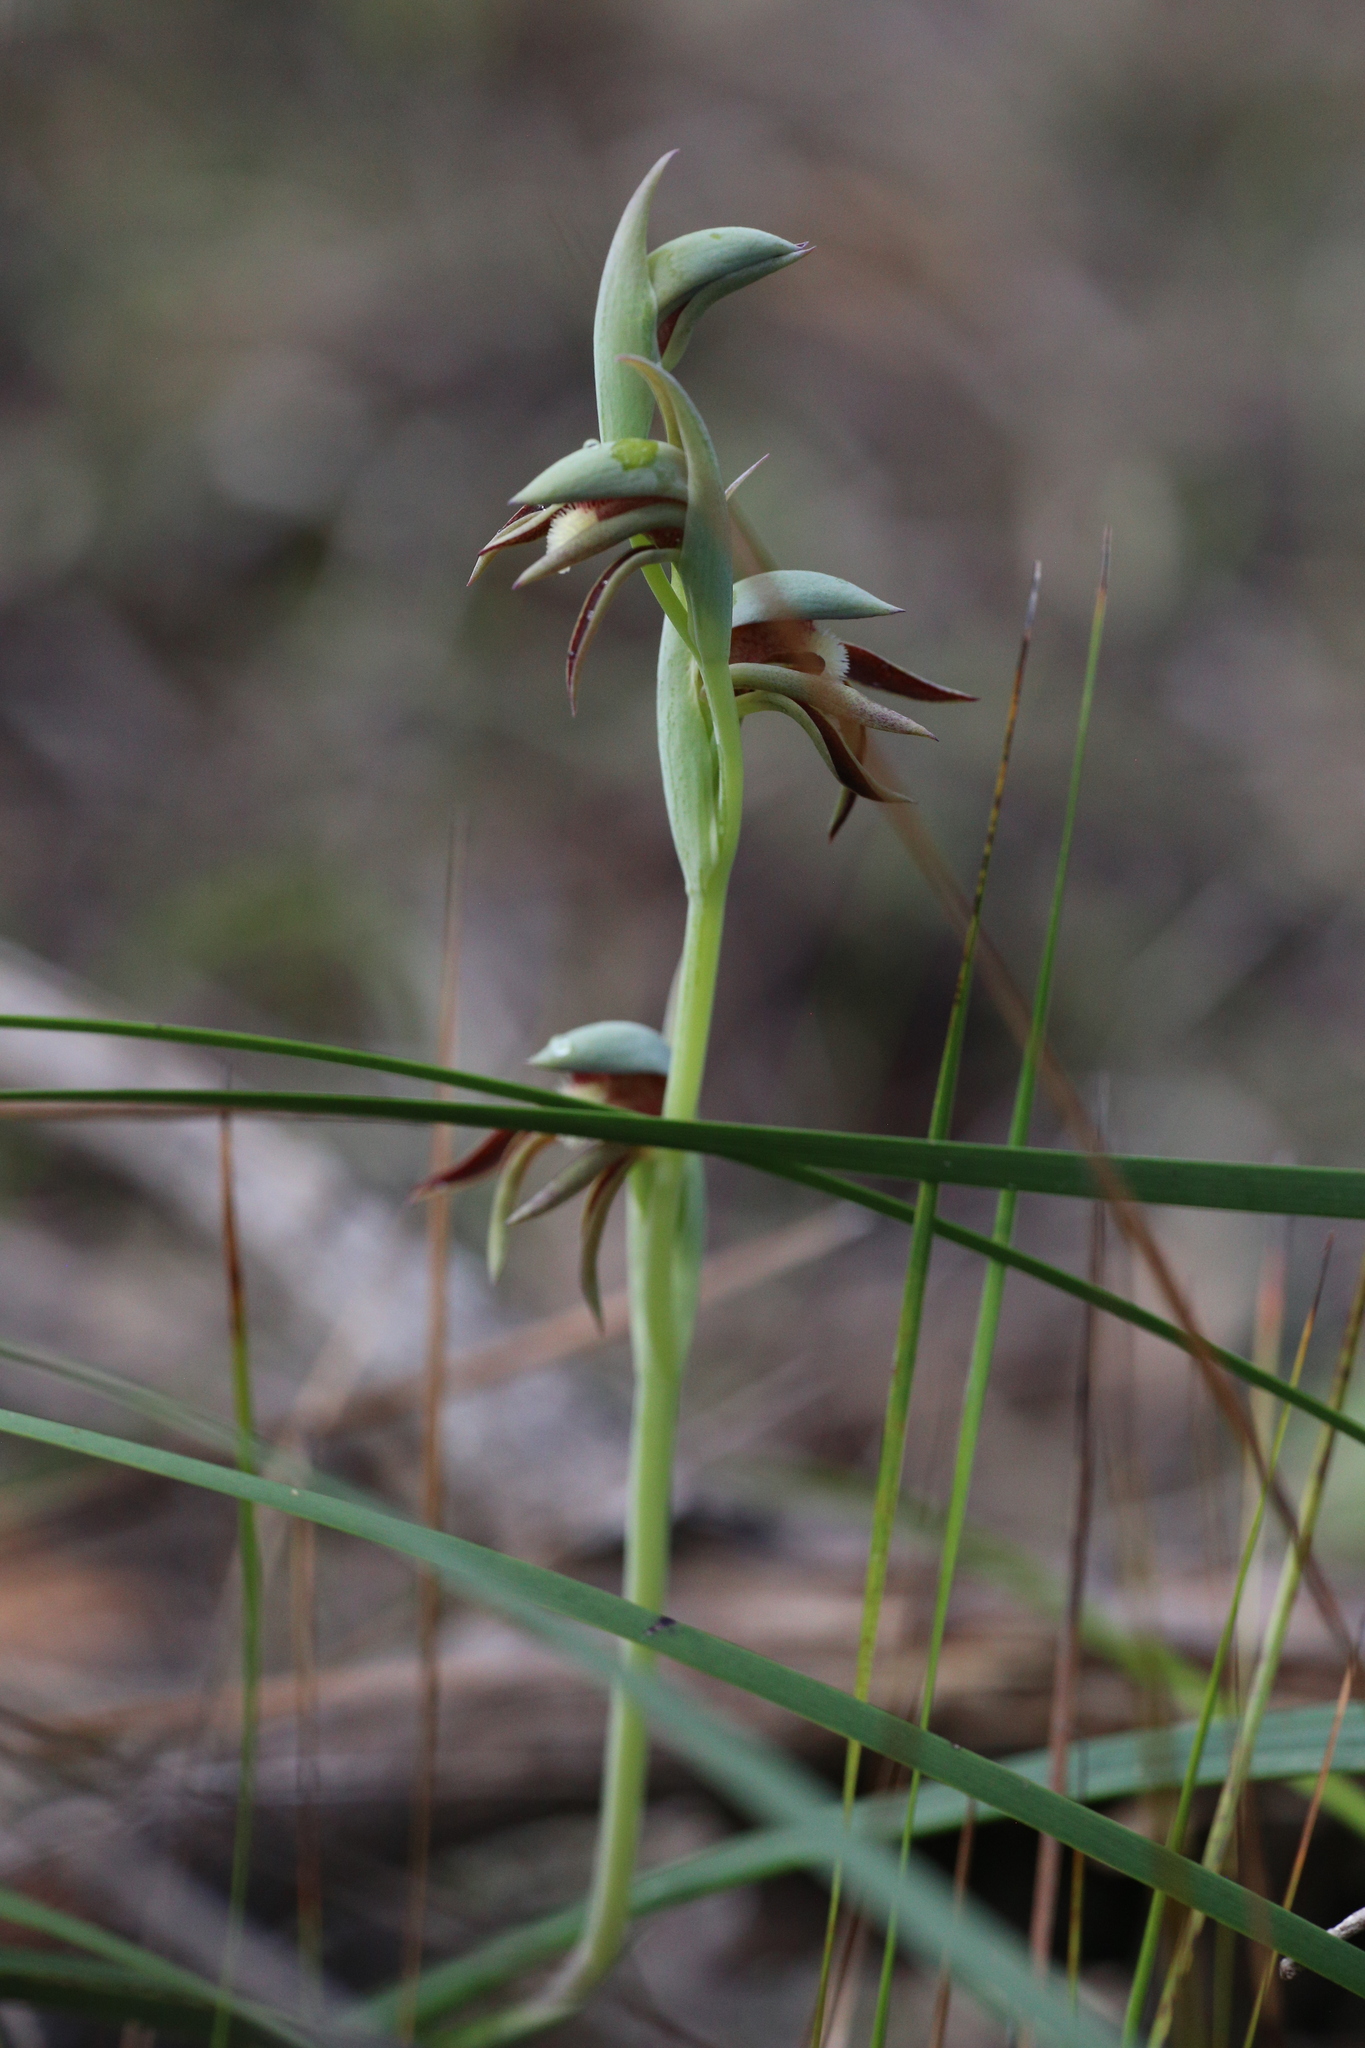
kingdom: Plantae
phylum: Tracheophyta
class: Liliopsida
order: Asparagales
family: Orchidaceae
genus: Lyperanthus
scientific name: Lyperanthus serratus
